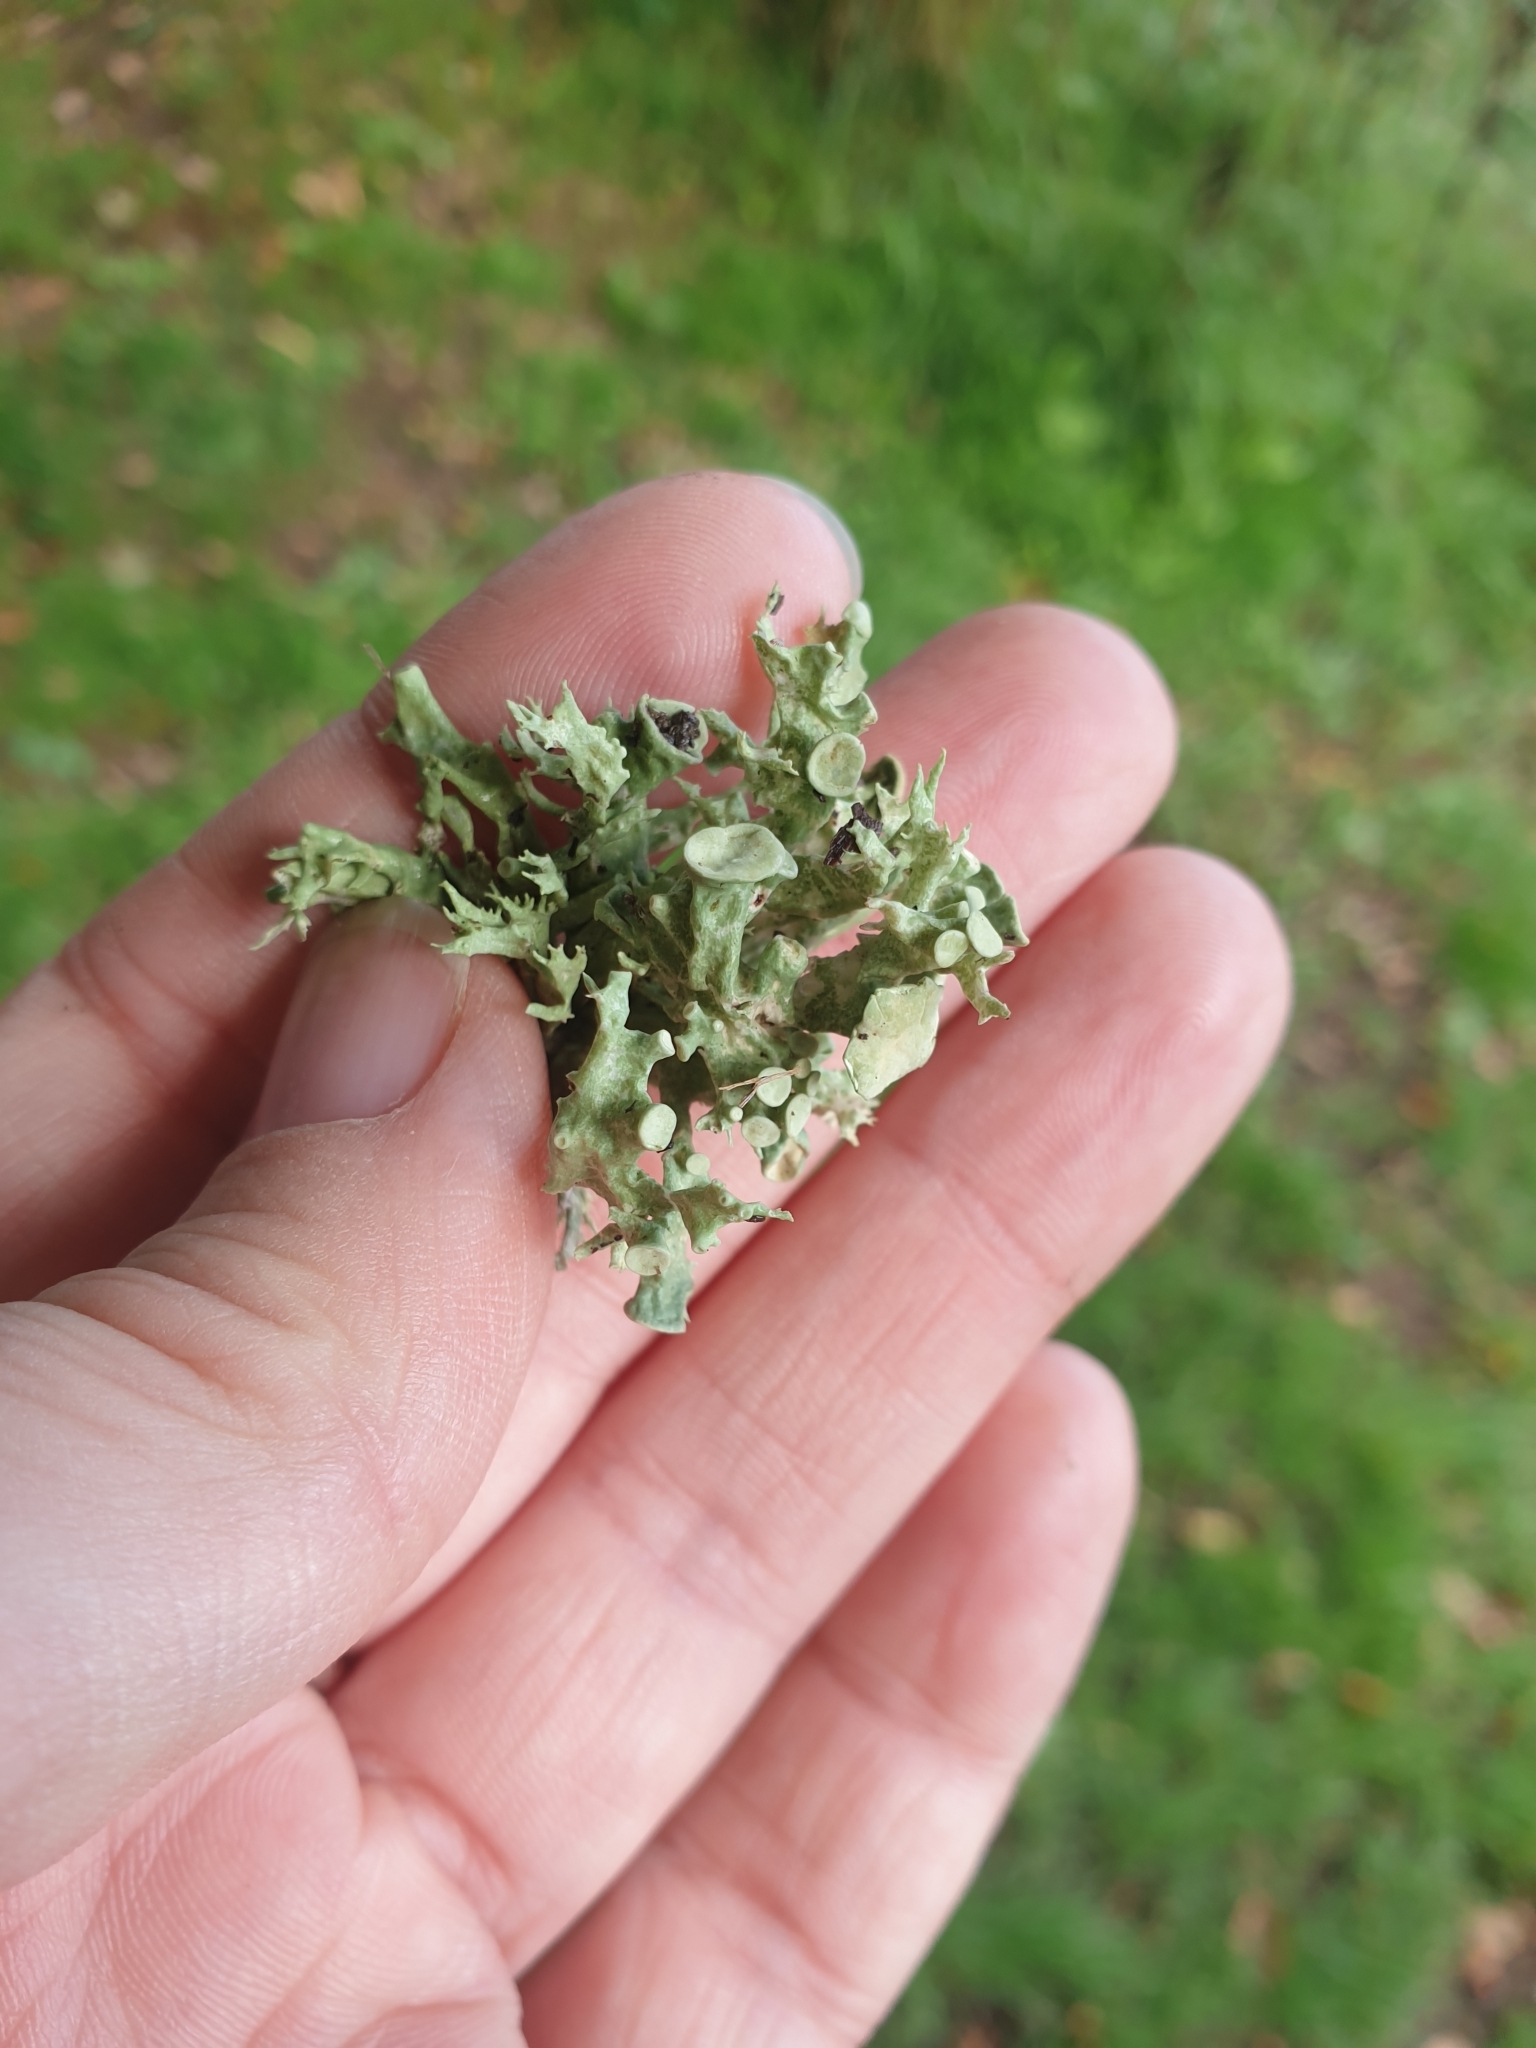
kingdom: Fungi
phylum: Ascomycota
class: Lecanoromycetes
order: Lecanorales
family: Ramalinaceae
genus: Ramalina
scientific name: Ramalina fastigiata
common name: Dotted ribbon lichen
